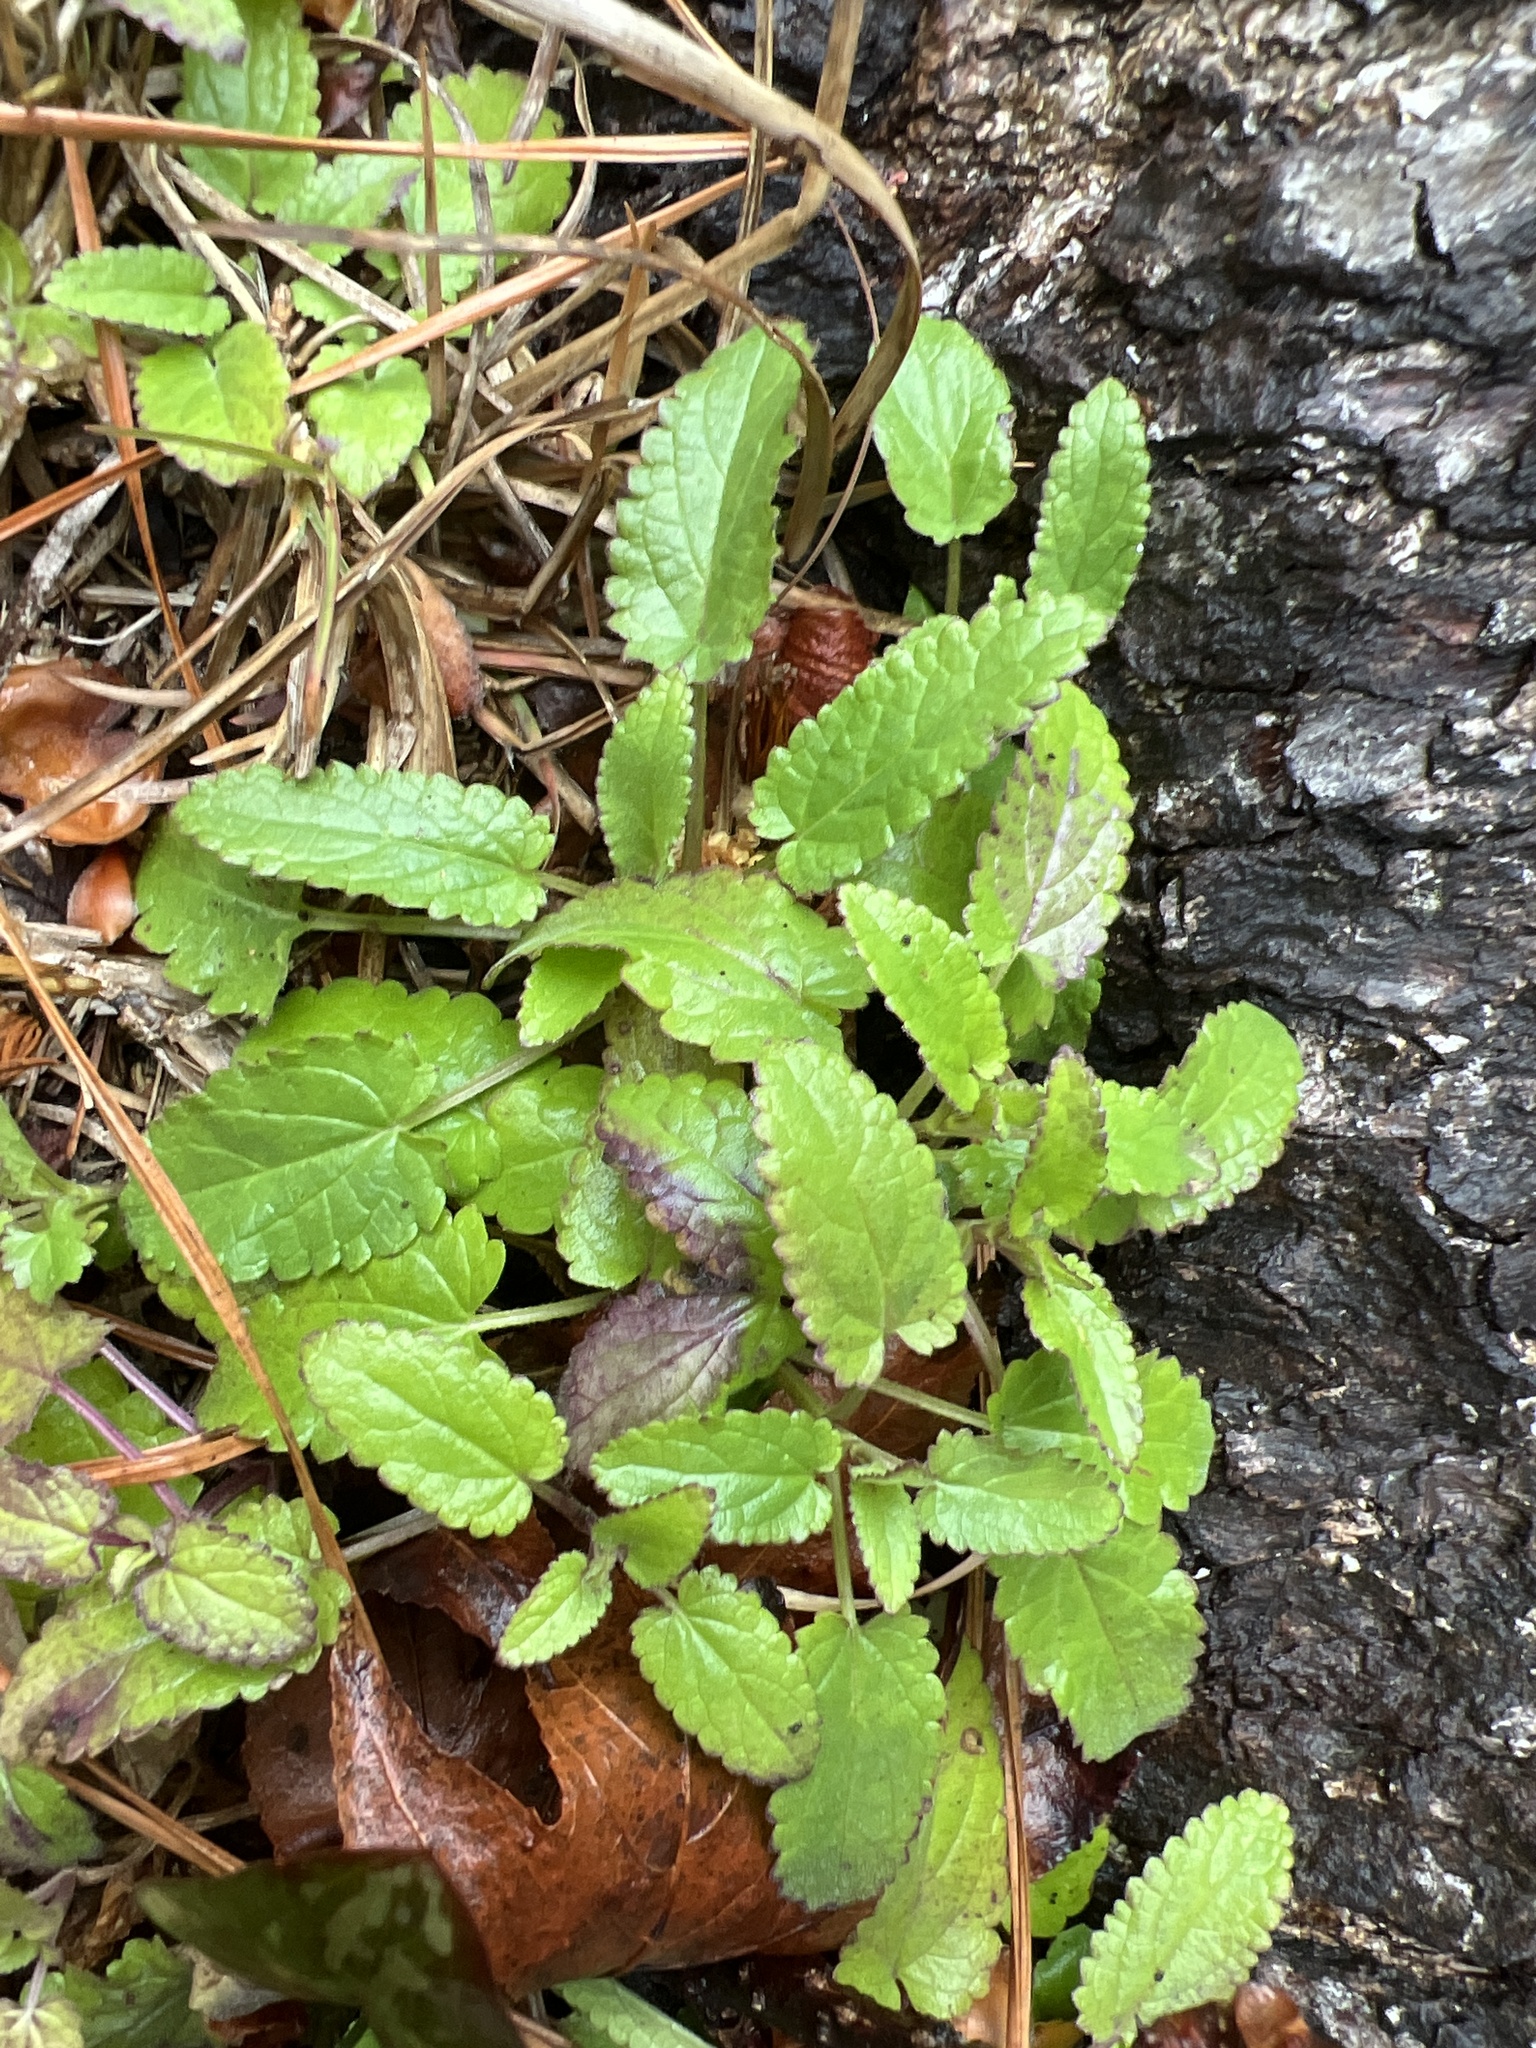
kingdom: Plantae
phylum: Tracheophyta
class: Magnoliopsida
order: Lamiales
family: Lamiaceae
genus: Stachys
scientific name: Stachys floridana
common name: Florida betony
